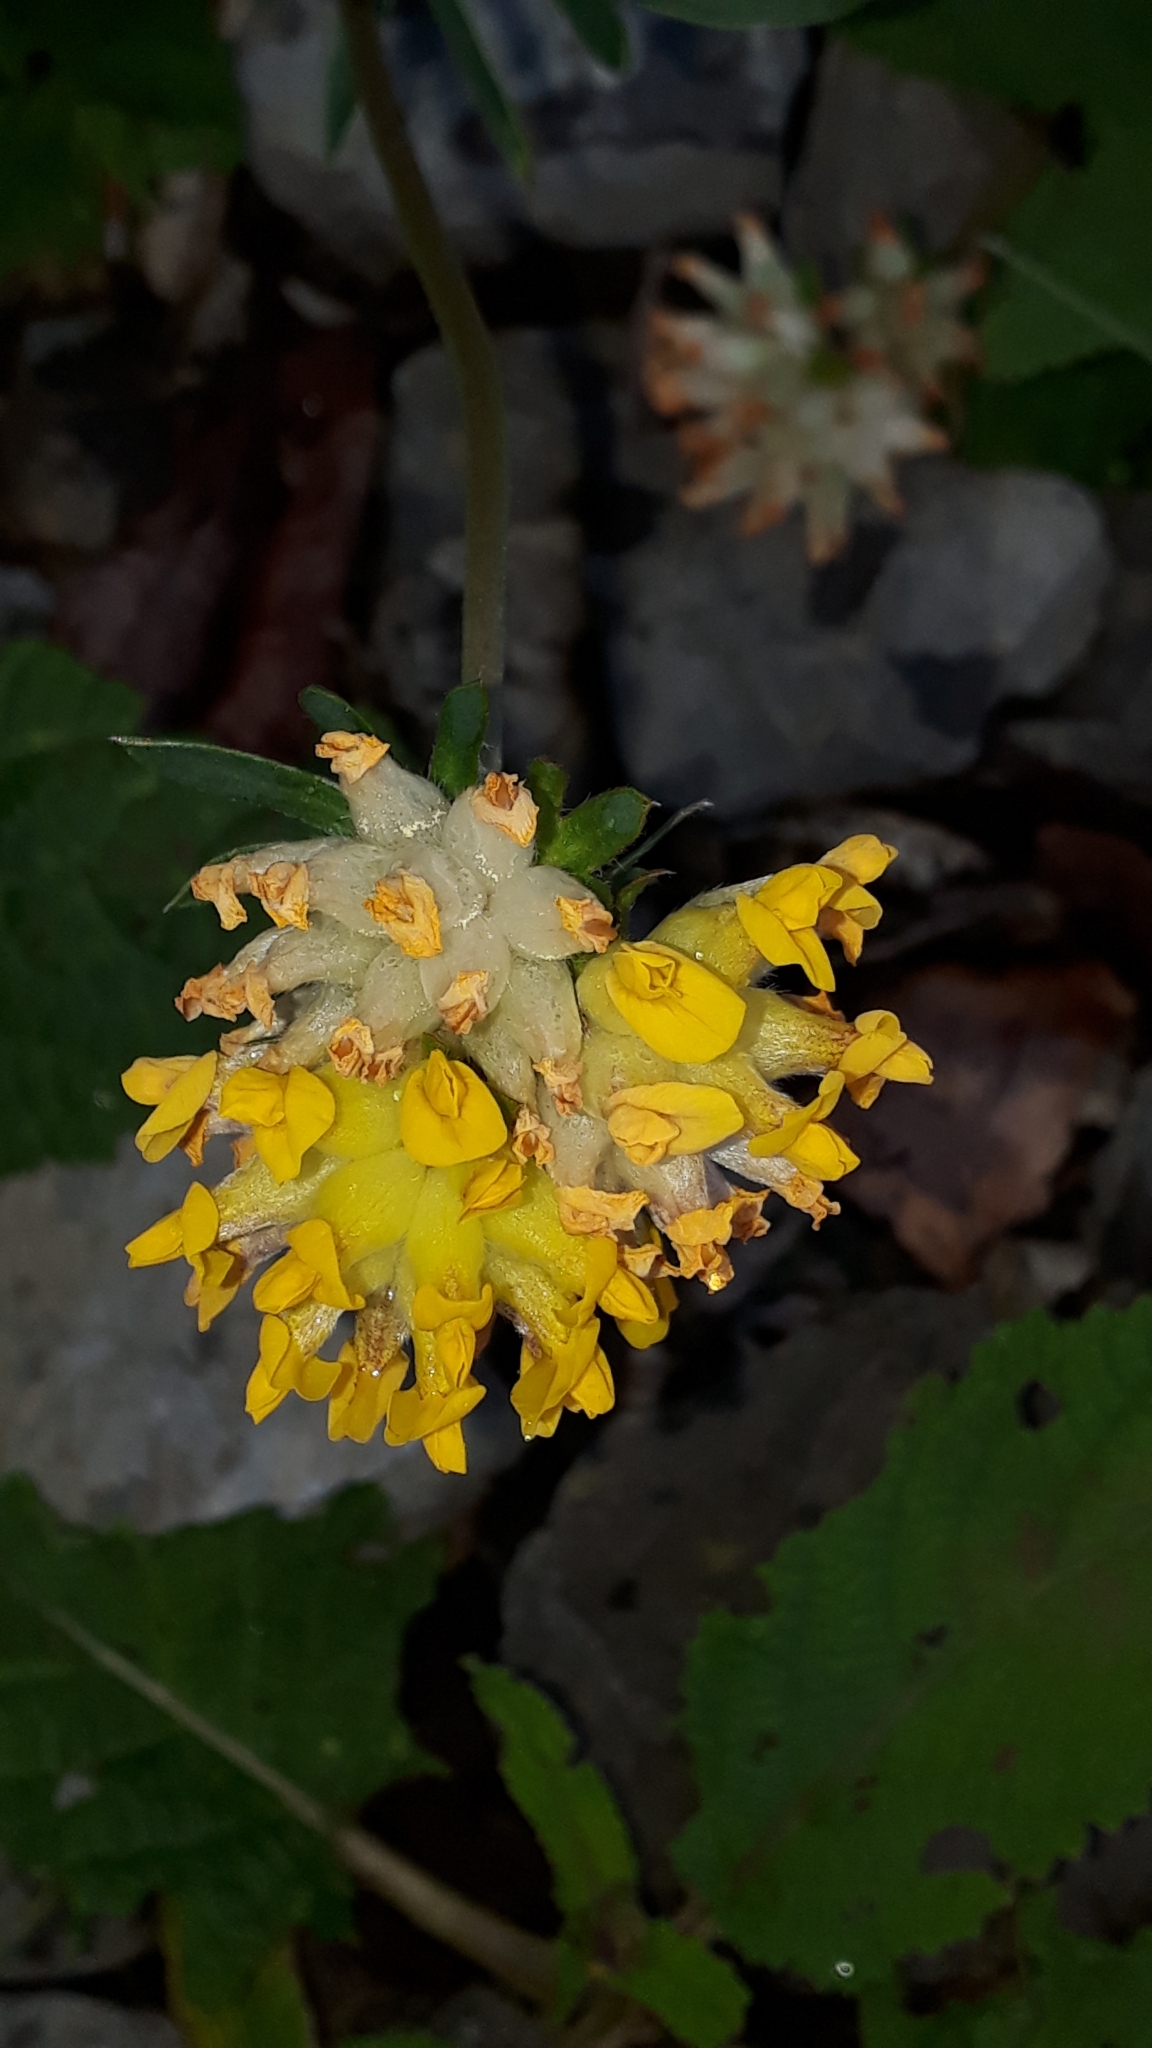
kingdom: Plantae
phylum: Tracheophyta
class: Magnoliopsida
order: Fabales
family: Fabaceae
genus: Anthyllis
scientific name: Anthyllis vulneraria
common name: Kidney vetch
